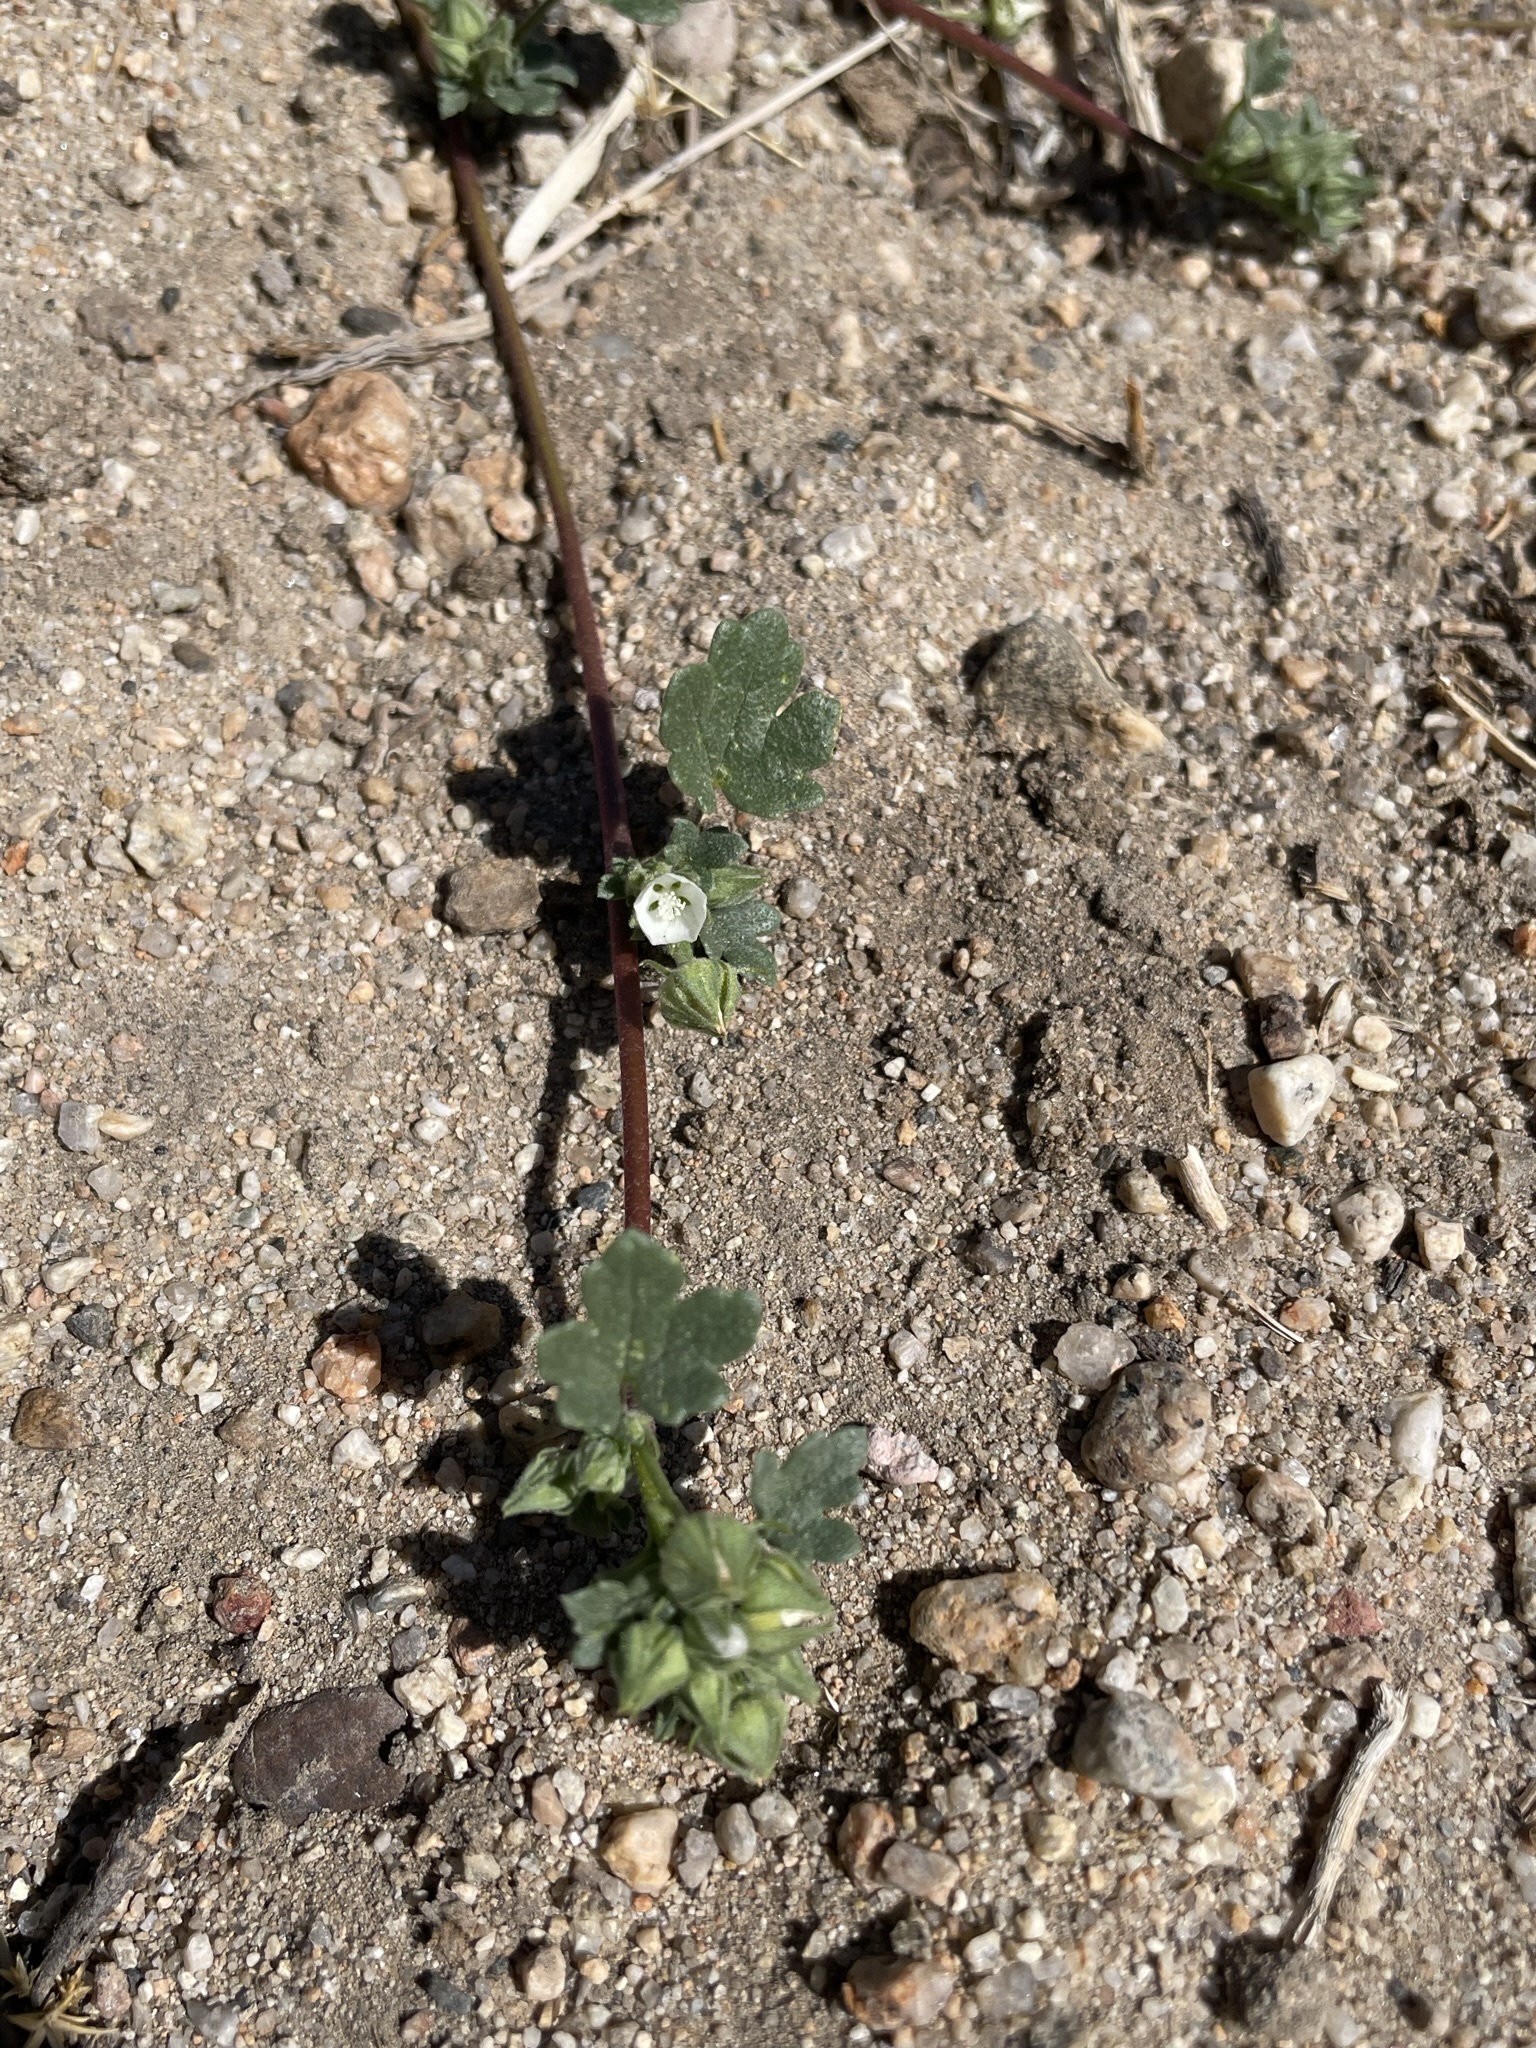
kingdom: Plantae
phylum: Tracheophyta
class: Magnoliopsida
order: Malvales
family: Malvaceae
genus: Eremalche
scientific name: Eremalche exilis
